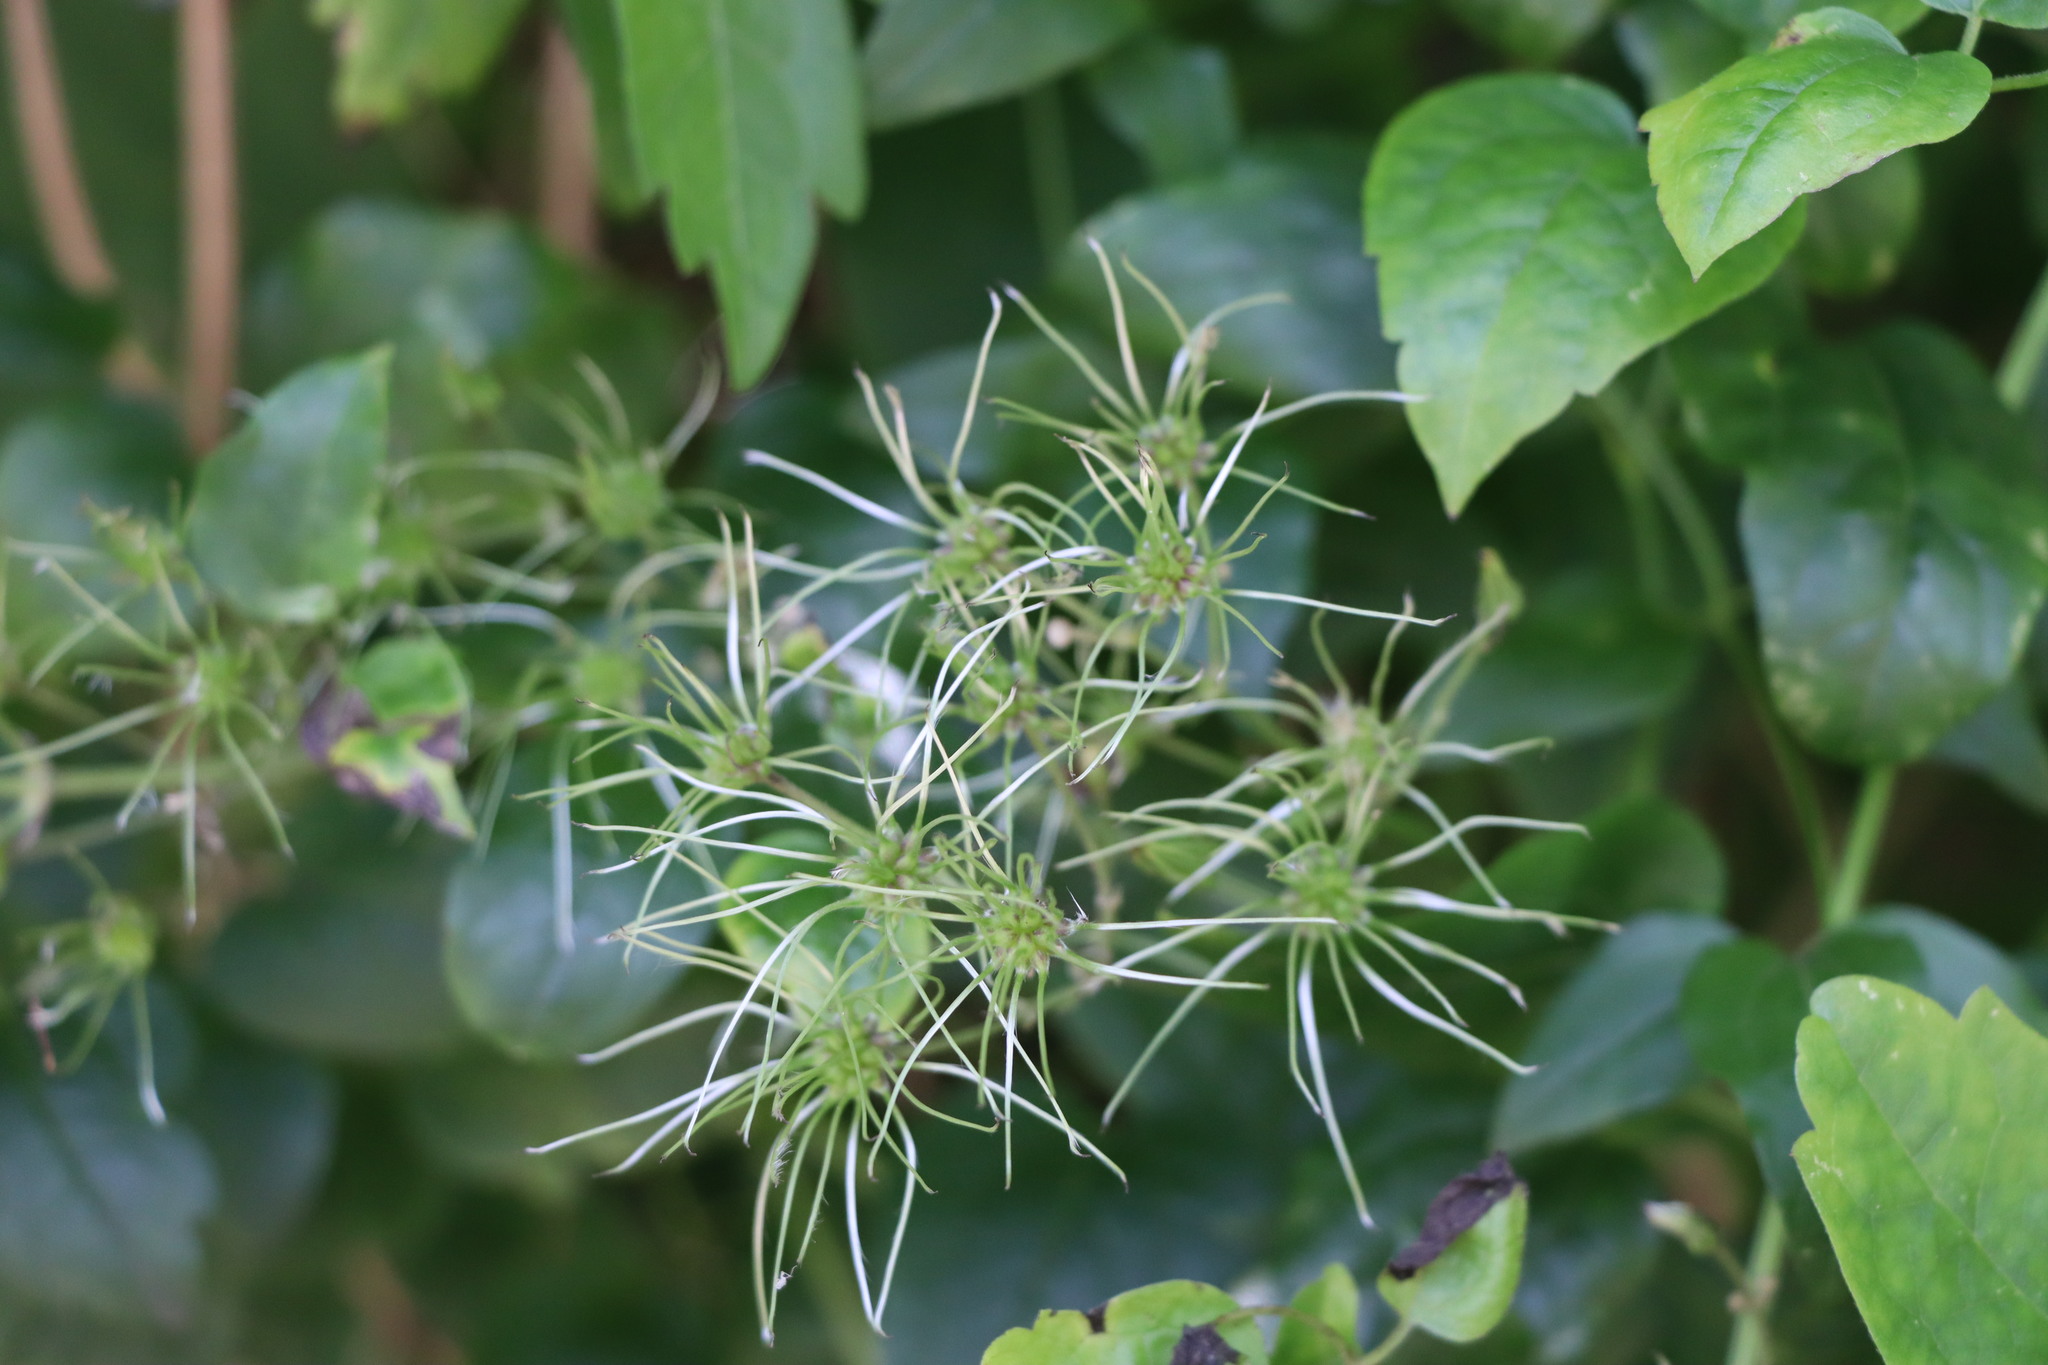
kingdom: Plantae
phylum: Tracheophyta
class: Magnoliopsida
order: Ranunculales
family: Ranunculaceae
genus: Clematis
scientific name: Clematis vitalba
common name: Evergreen clematis
